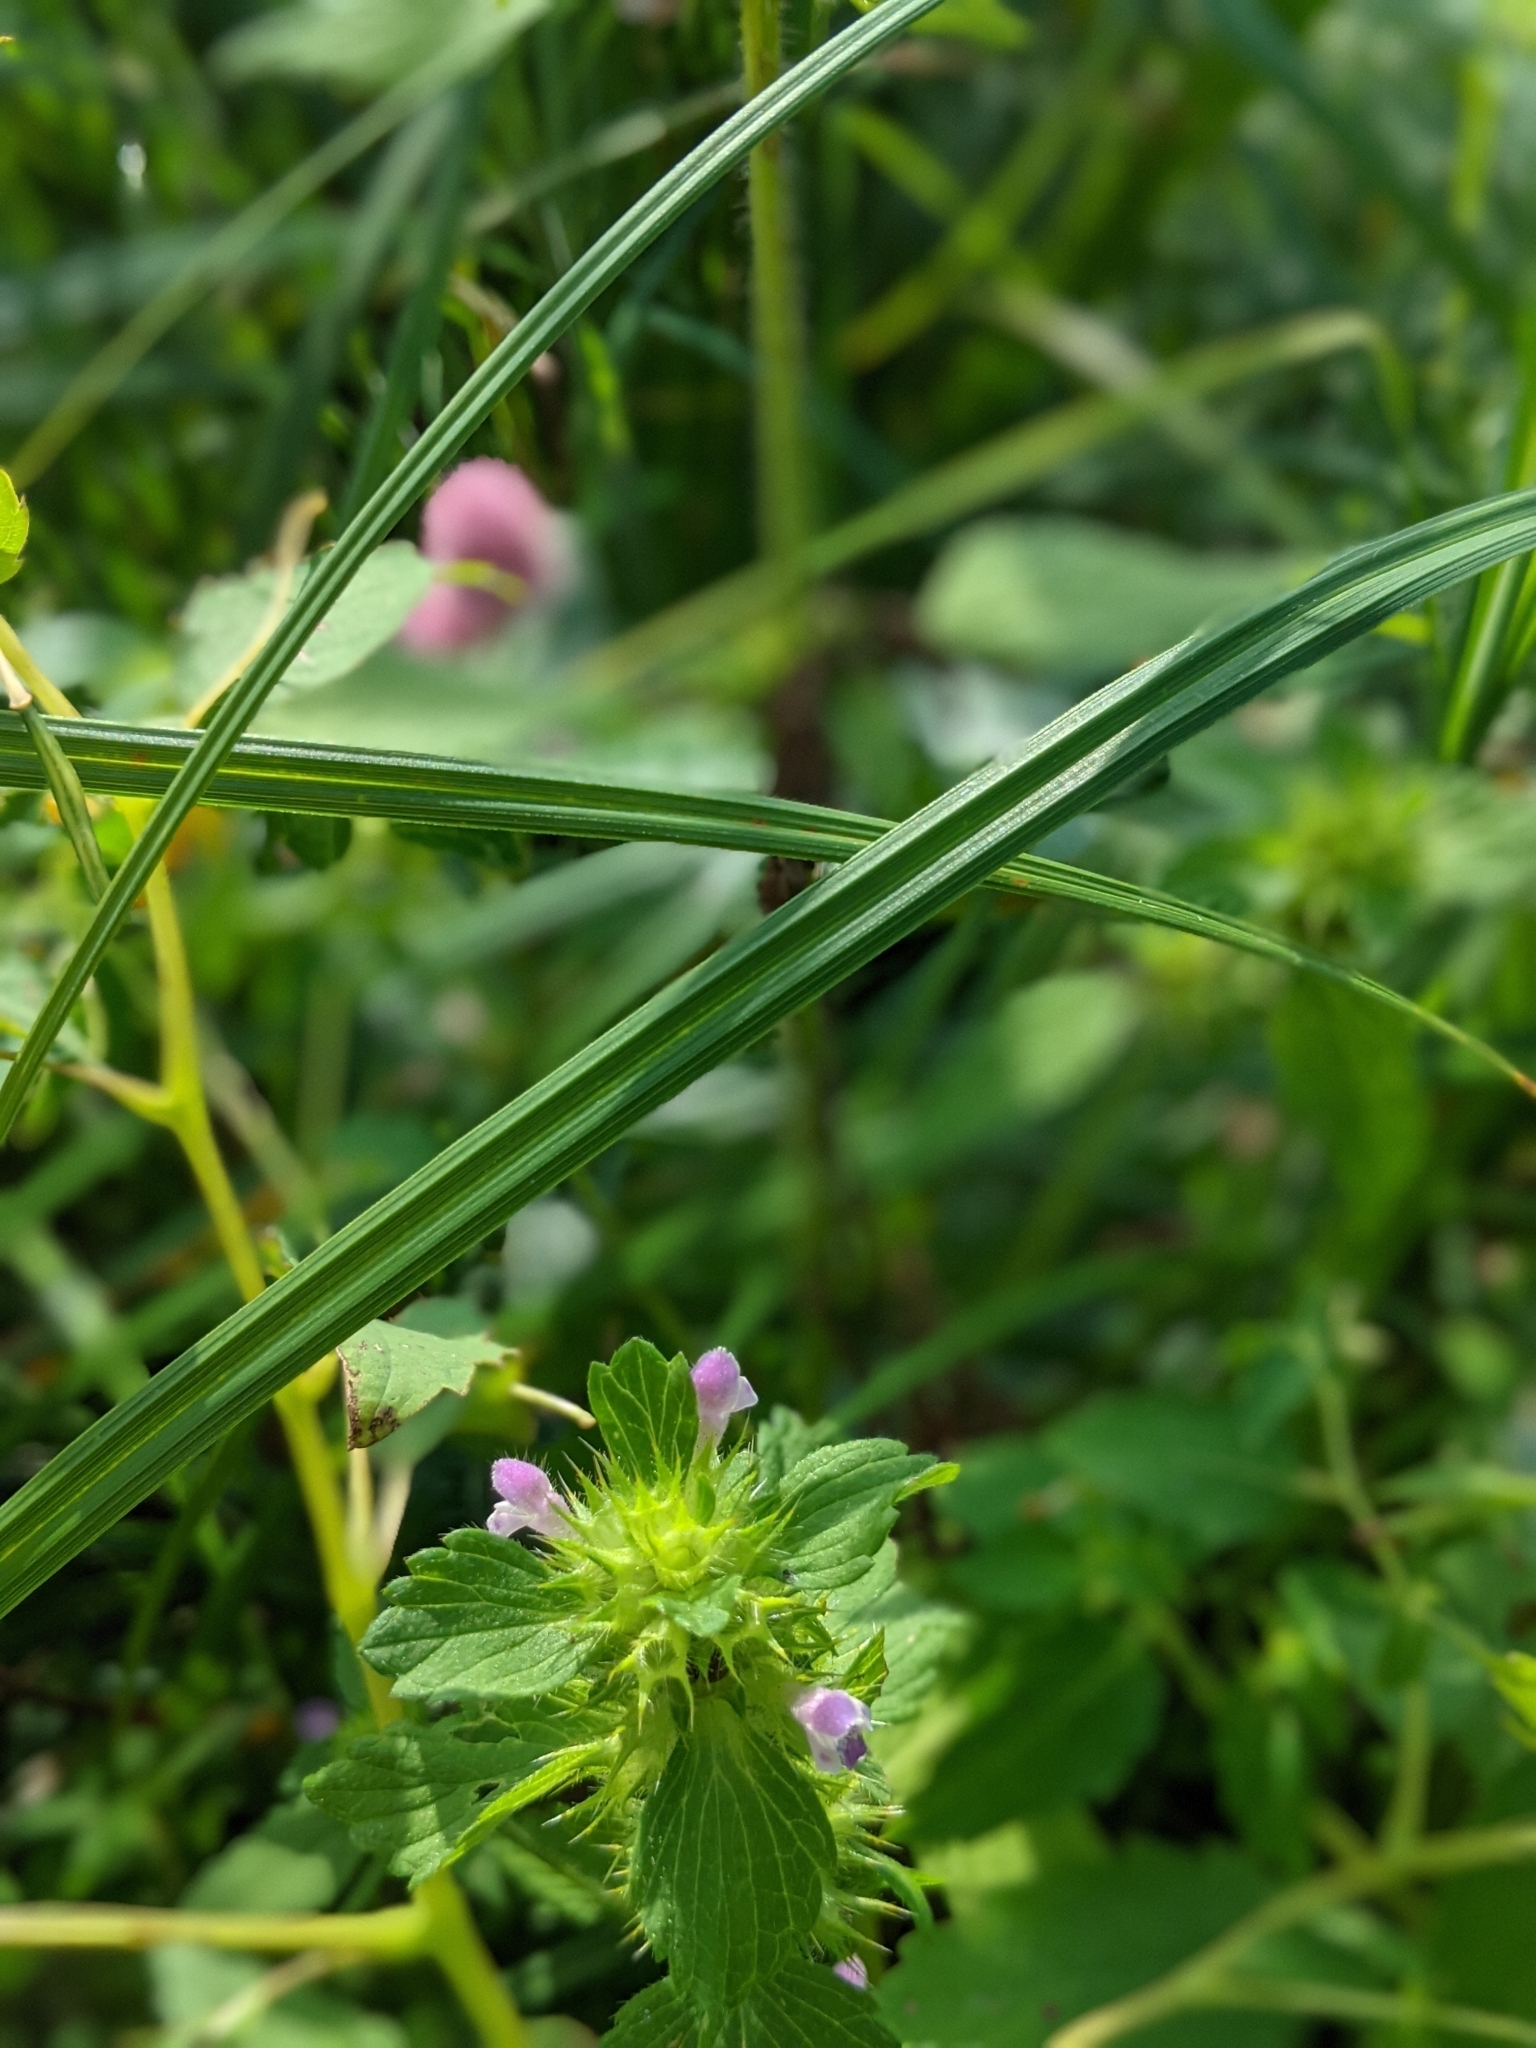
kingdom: Plantae
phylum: Tracheophyta
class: Magnoliopsida
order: Lamiales
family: Lamiaceae
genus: Galeopsis
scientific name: Galeopsis bifida
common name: Bifid hemp-nettle
